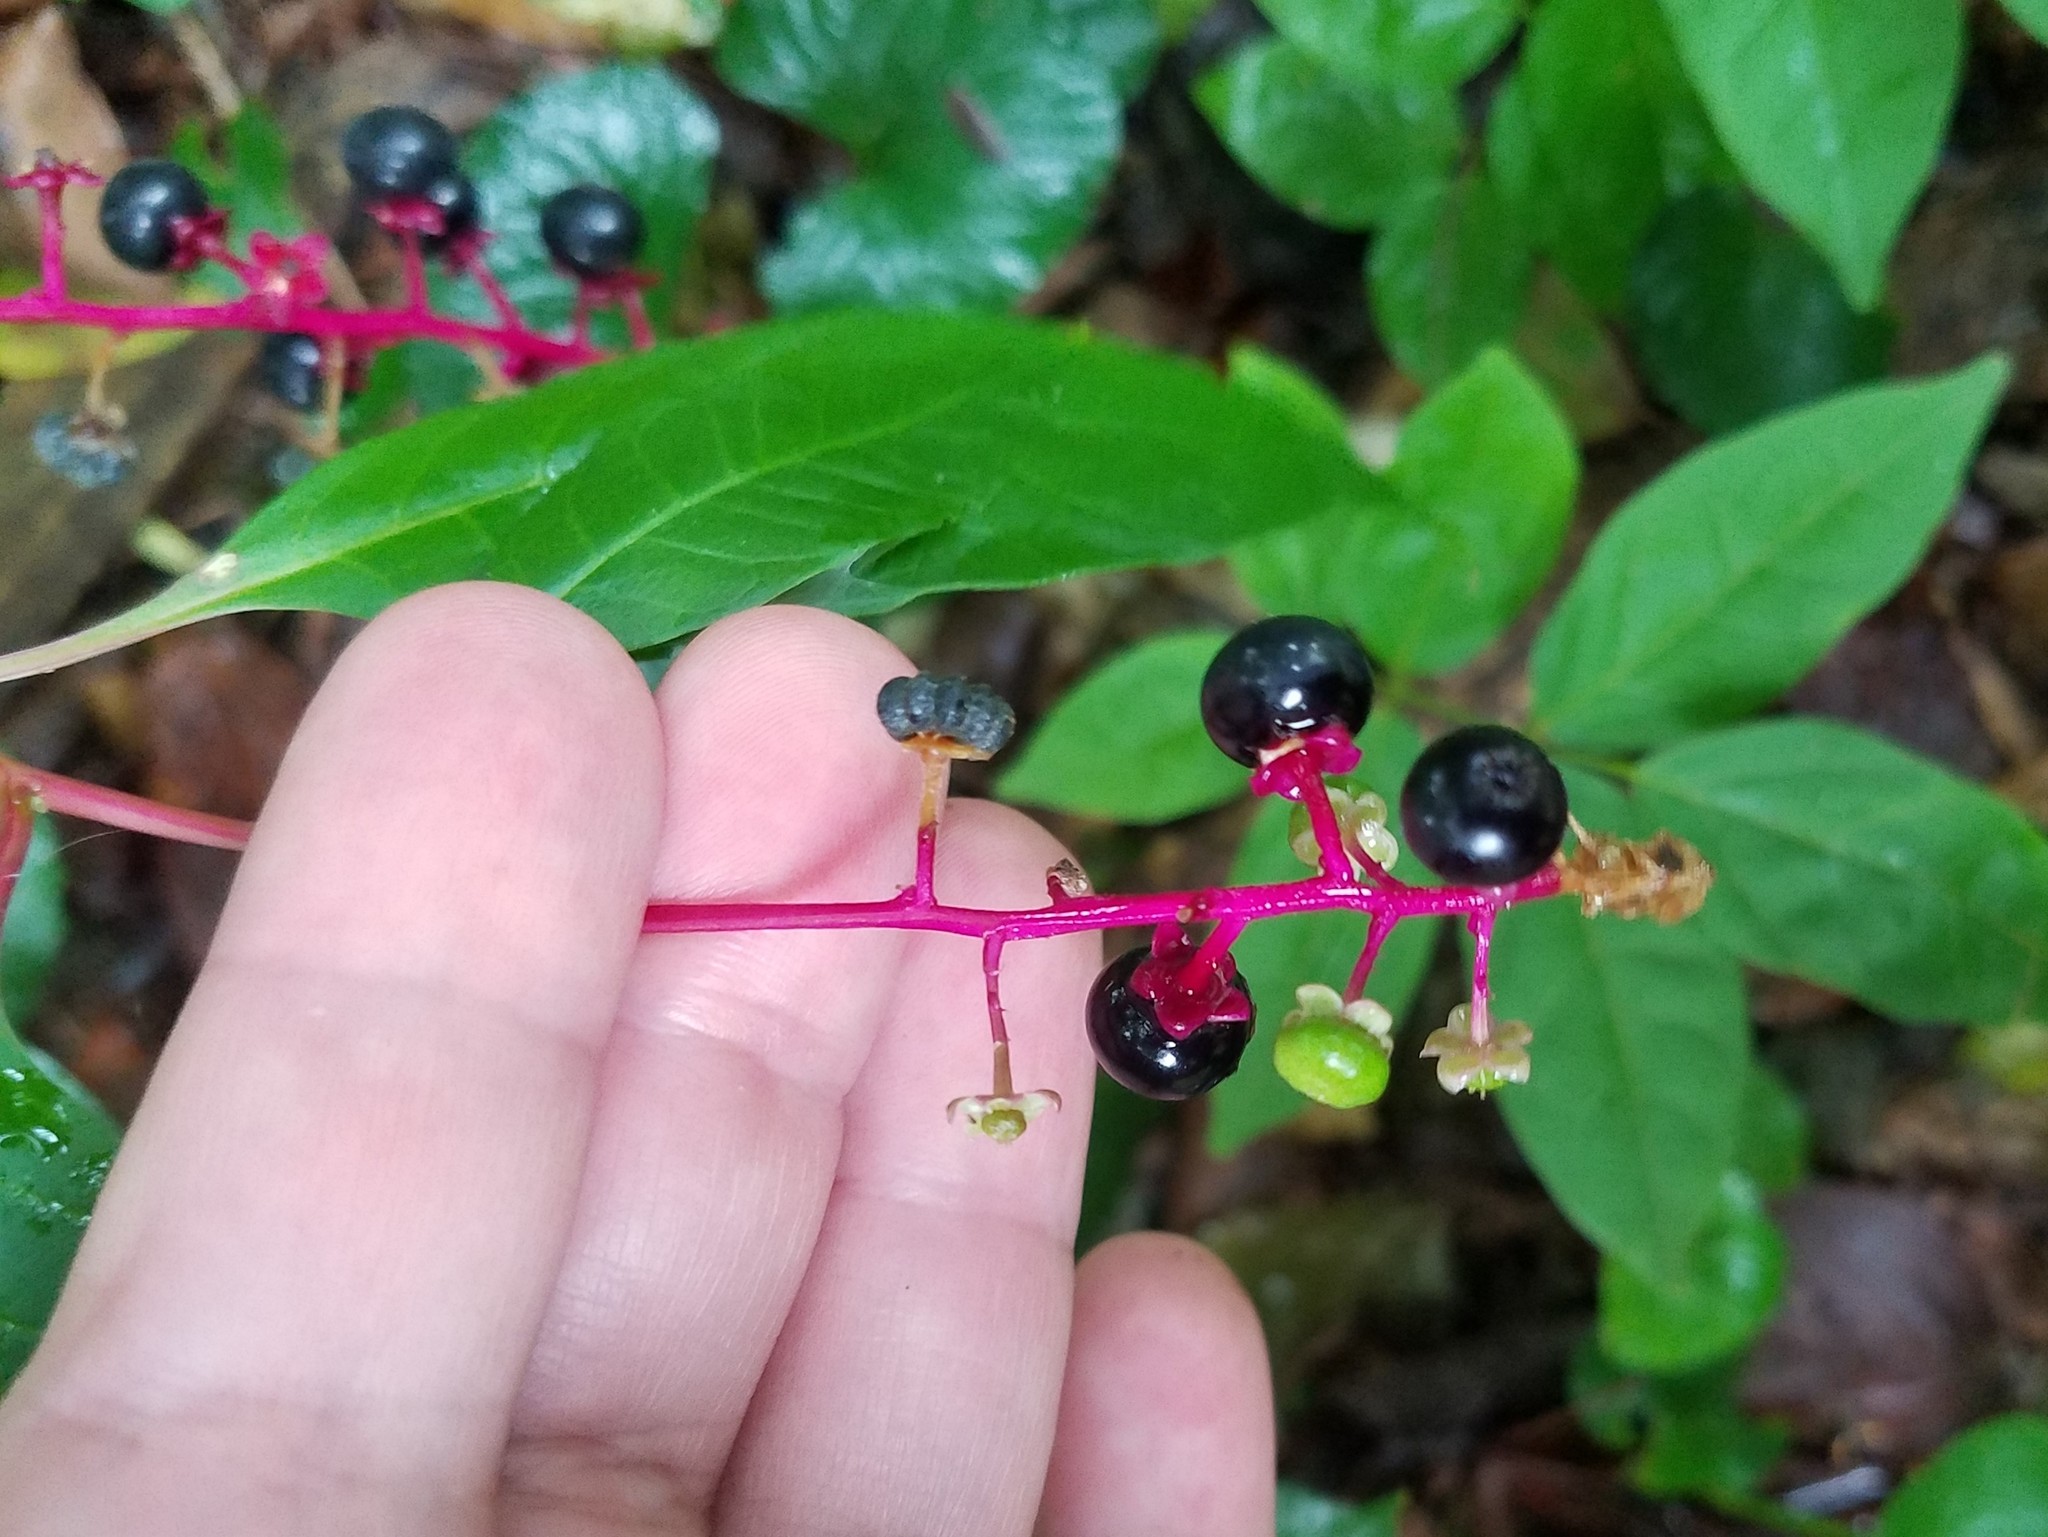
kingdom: Plantae
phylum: Tracheophyta
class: Magnoliopsida
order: Caryophyllales
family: Phytolaccaceae
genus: Phytolacca
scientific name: Phytolacca americana
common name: American pokeweed
